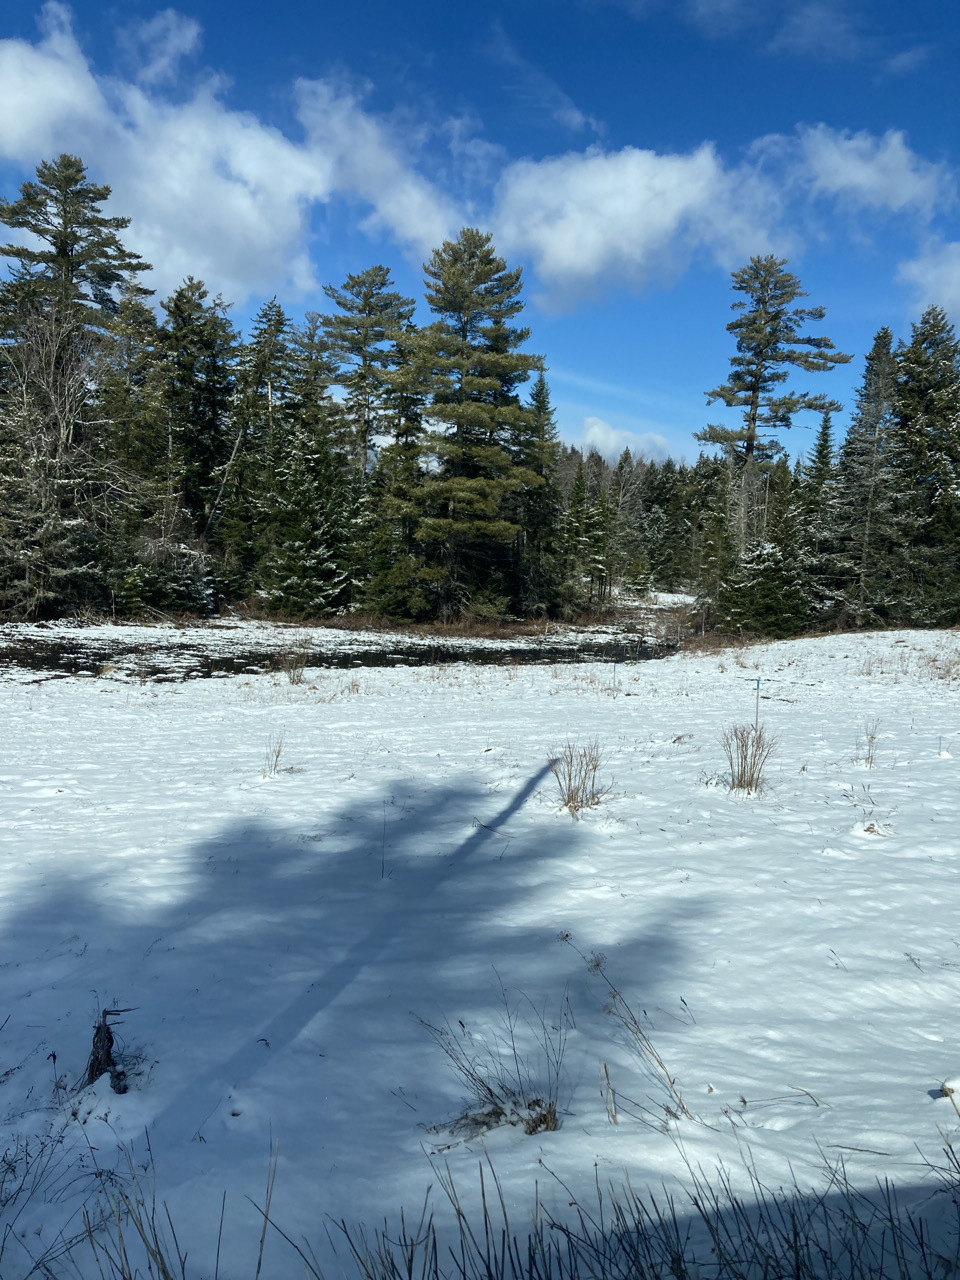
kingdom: Plantae
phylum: Tracheophyta
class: Pinopsida
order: Pinales
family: Pinaceae
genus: Pinus
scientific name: Pinus strobus
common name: Weymouth pine
